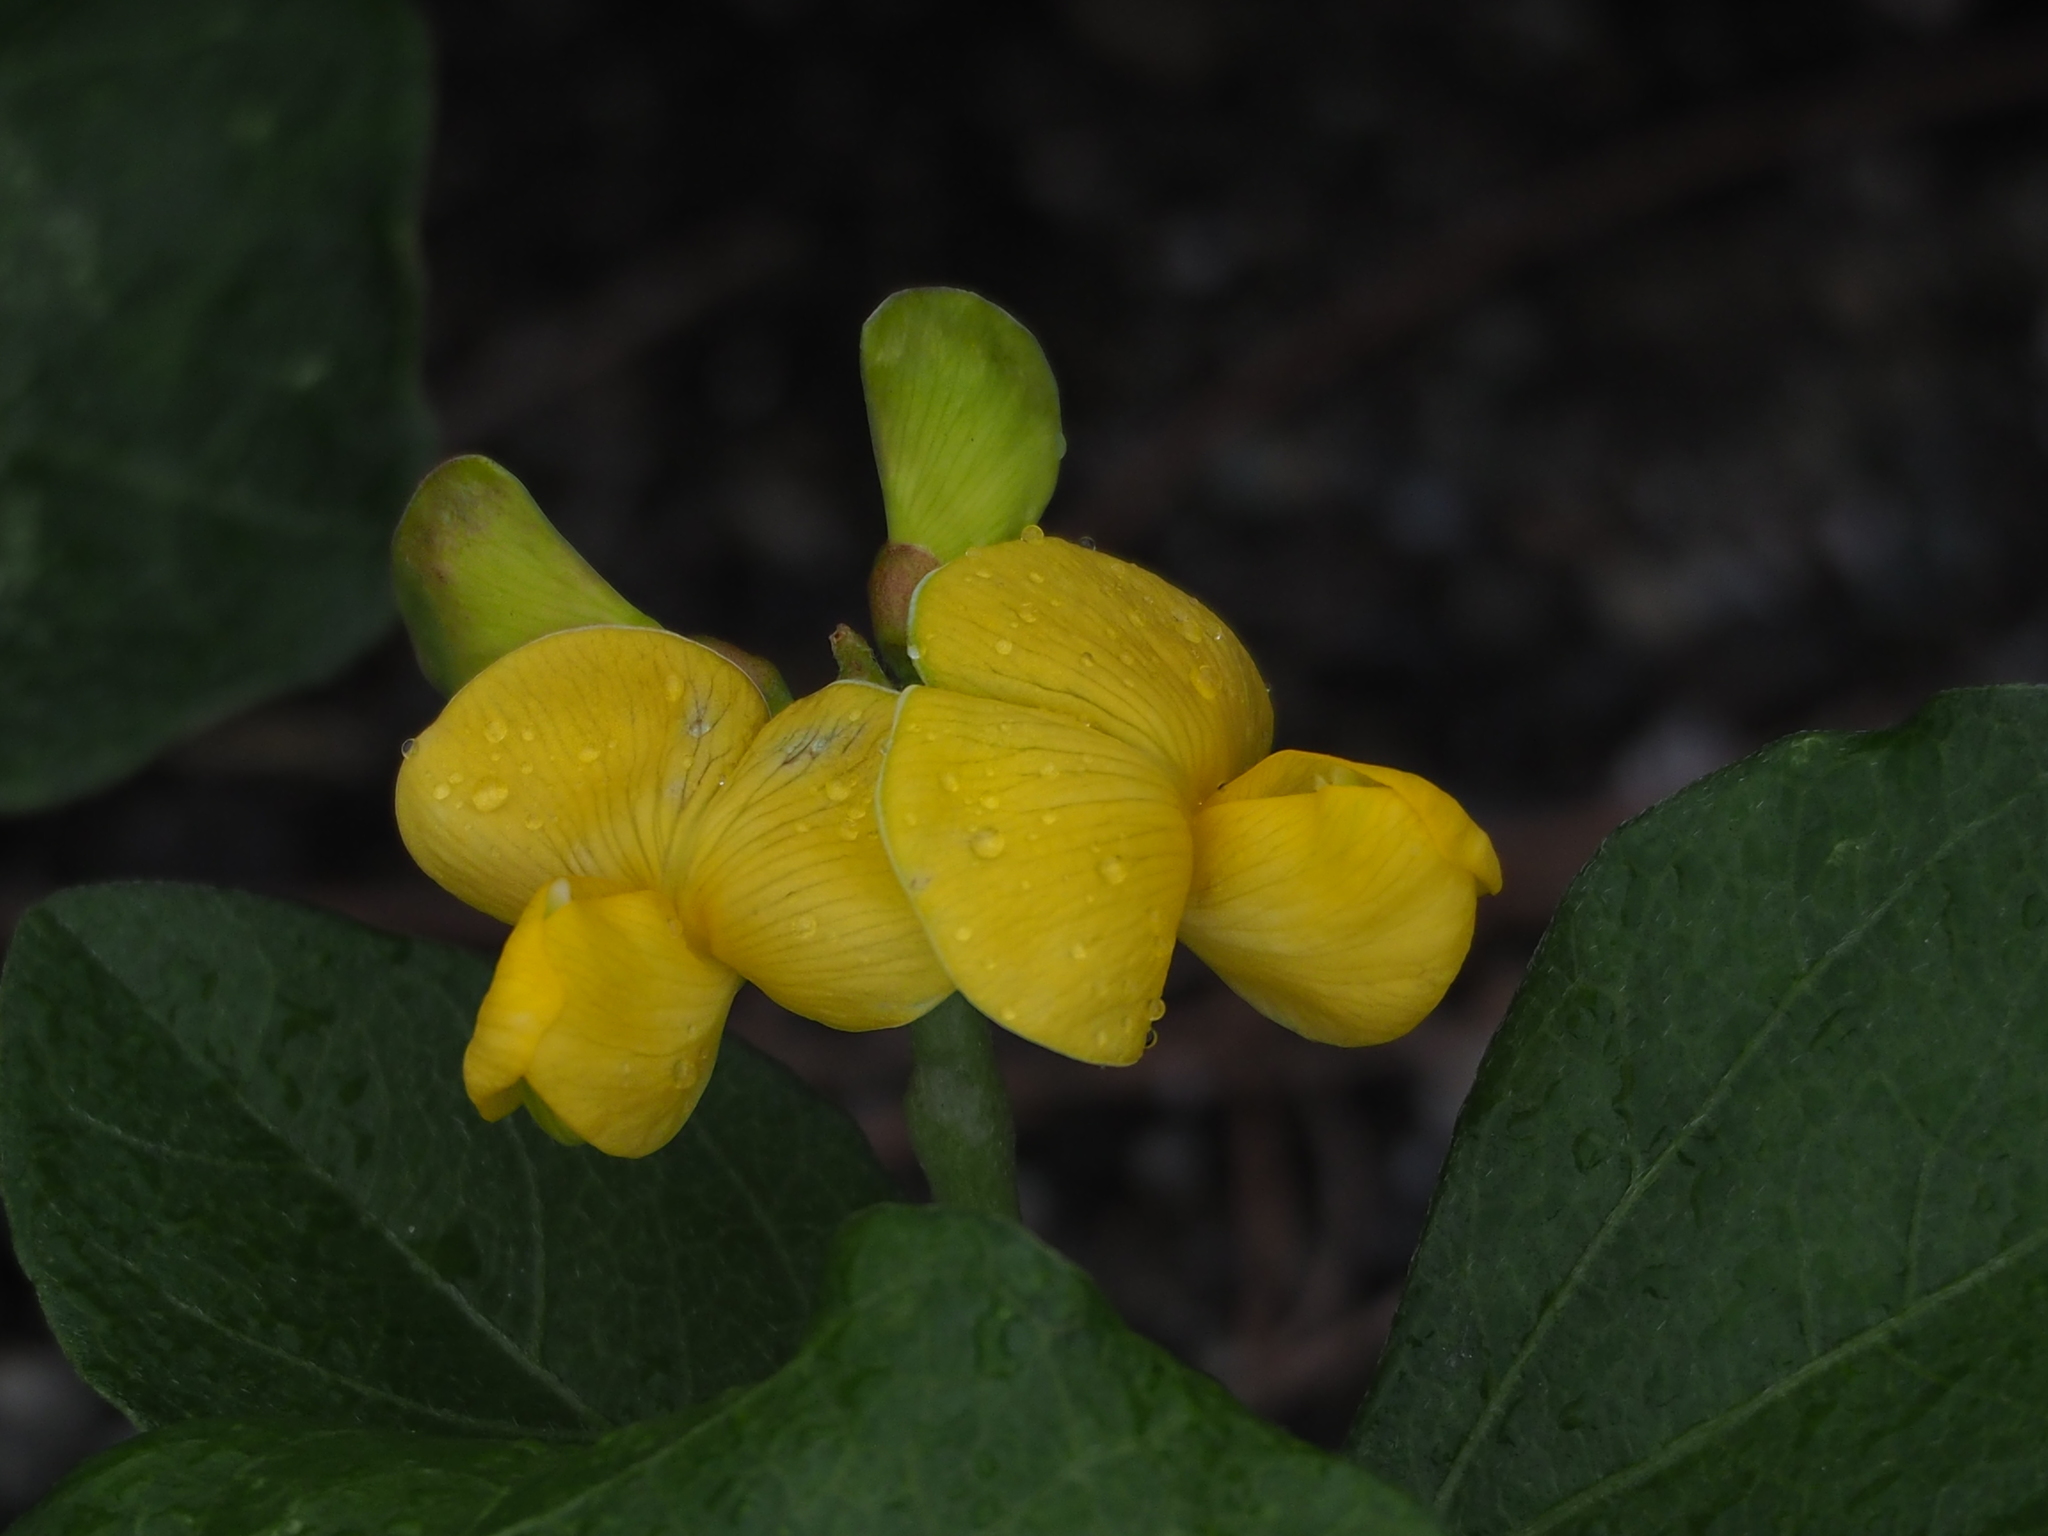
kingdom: Plantae
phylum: Tracheophyta
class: Magnoliopsida
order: Fabales
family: Fabaceae
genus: Vigna
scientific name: Vigna marina
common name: Dune-bean
